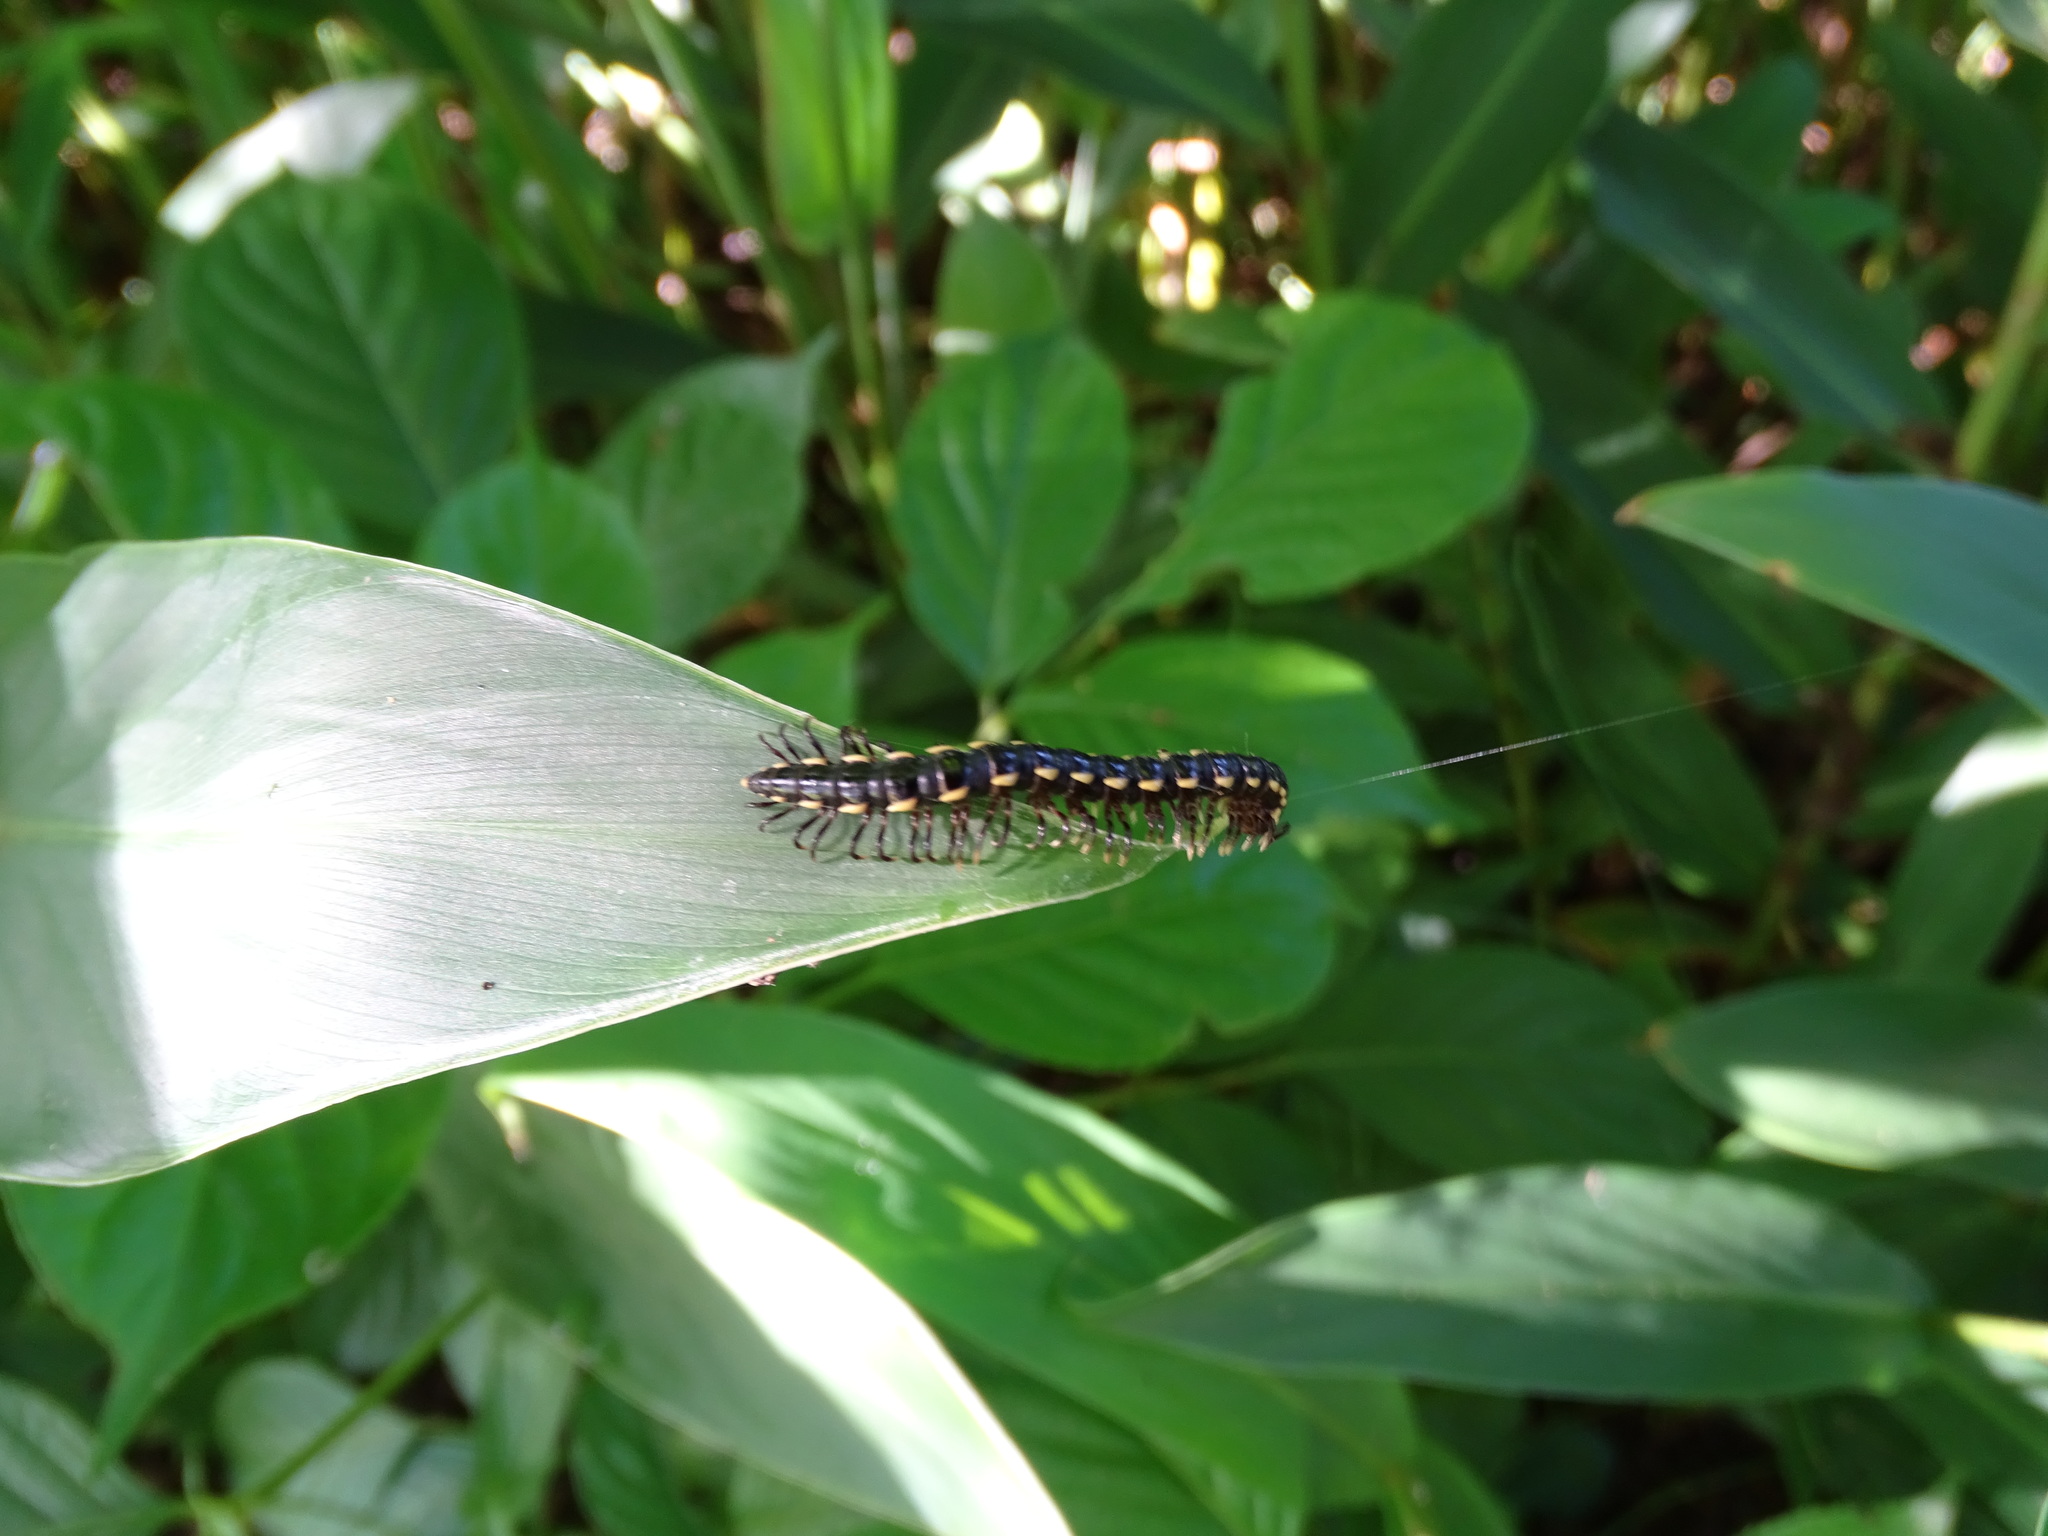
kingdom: Animalia
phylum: Arthropoda
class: Diplopoda
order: Polydesmida
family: Paradoxosomatidae
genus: Orthomorphella
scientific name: Orthomorphella pekuensis
